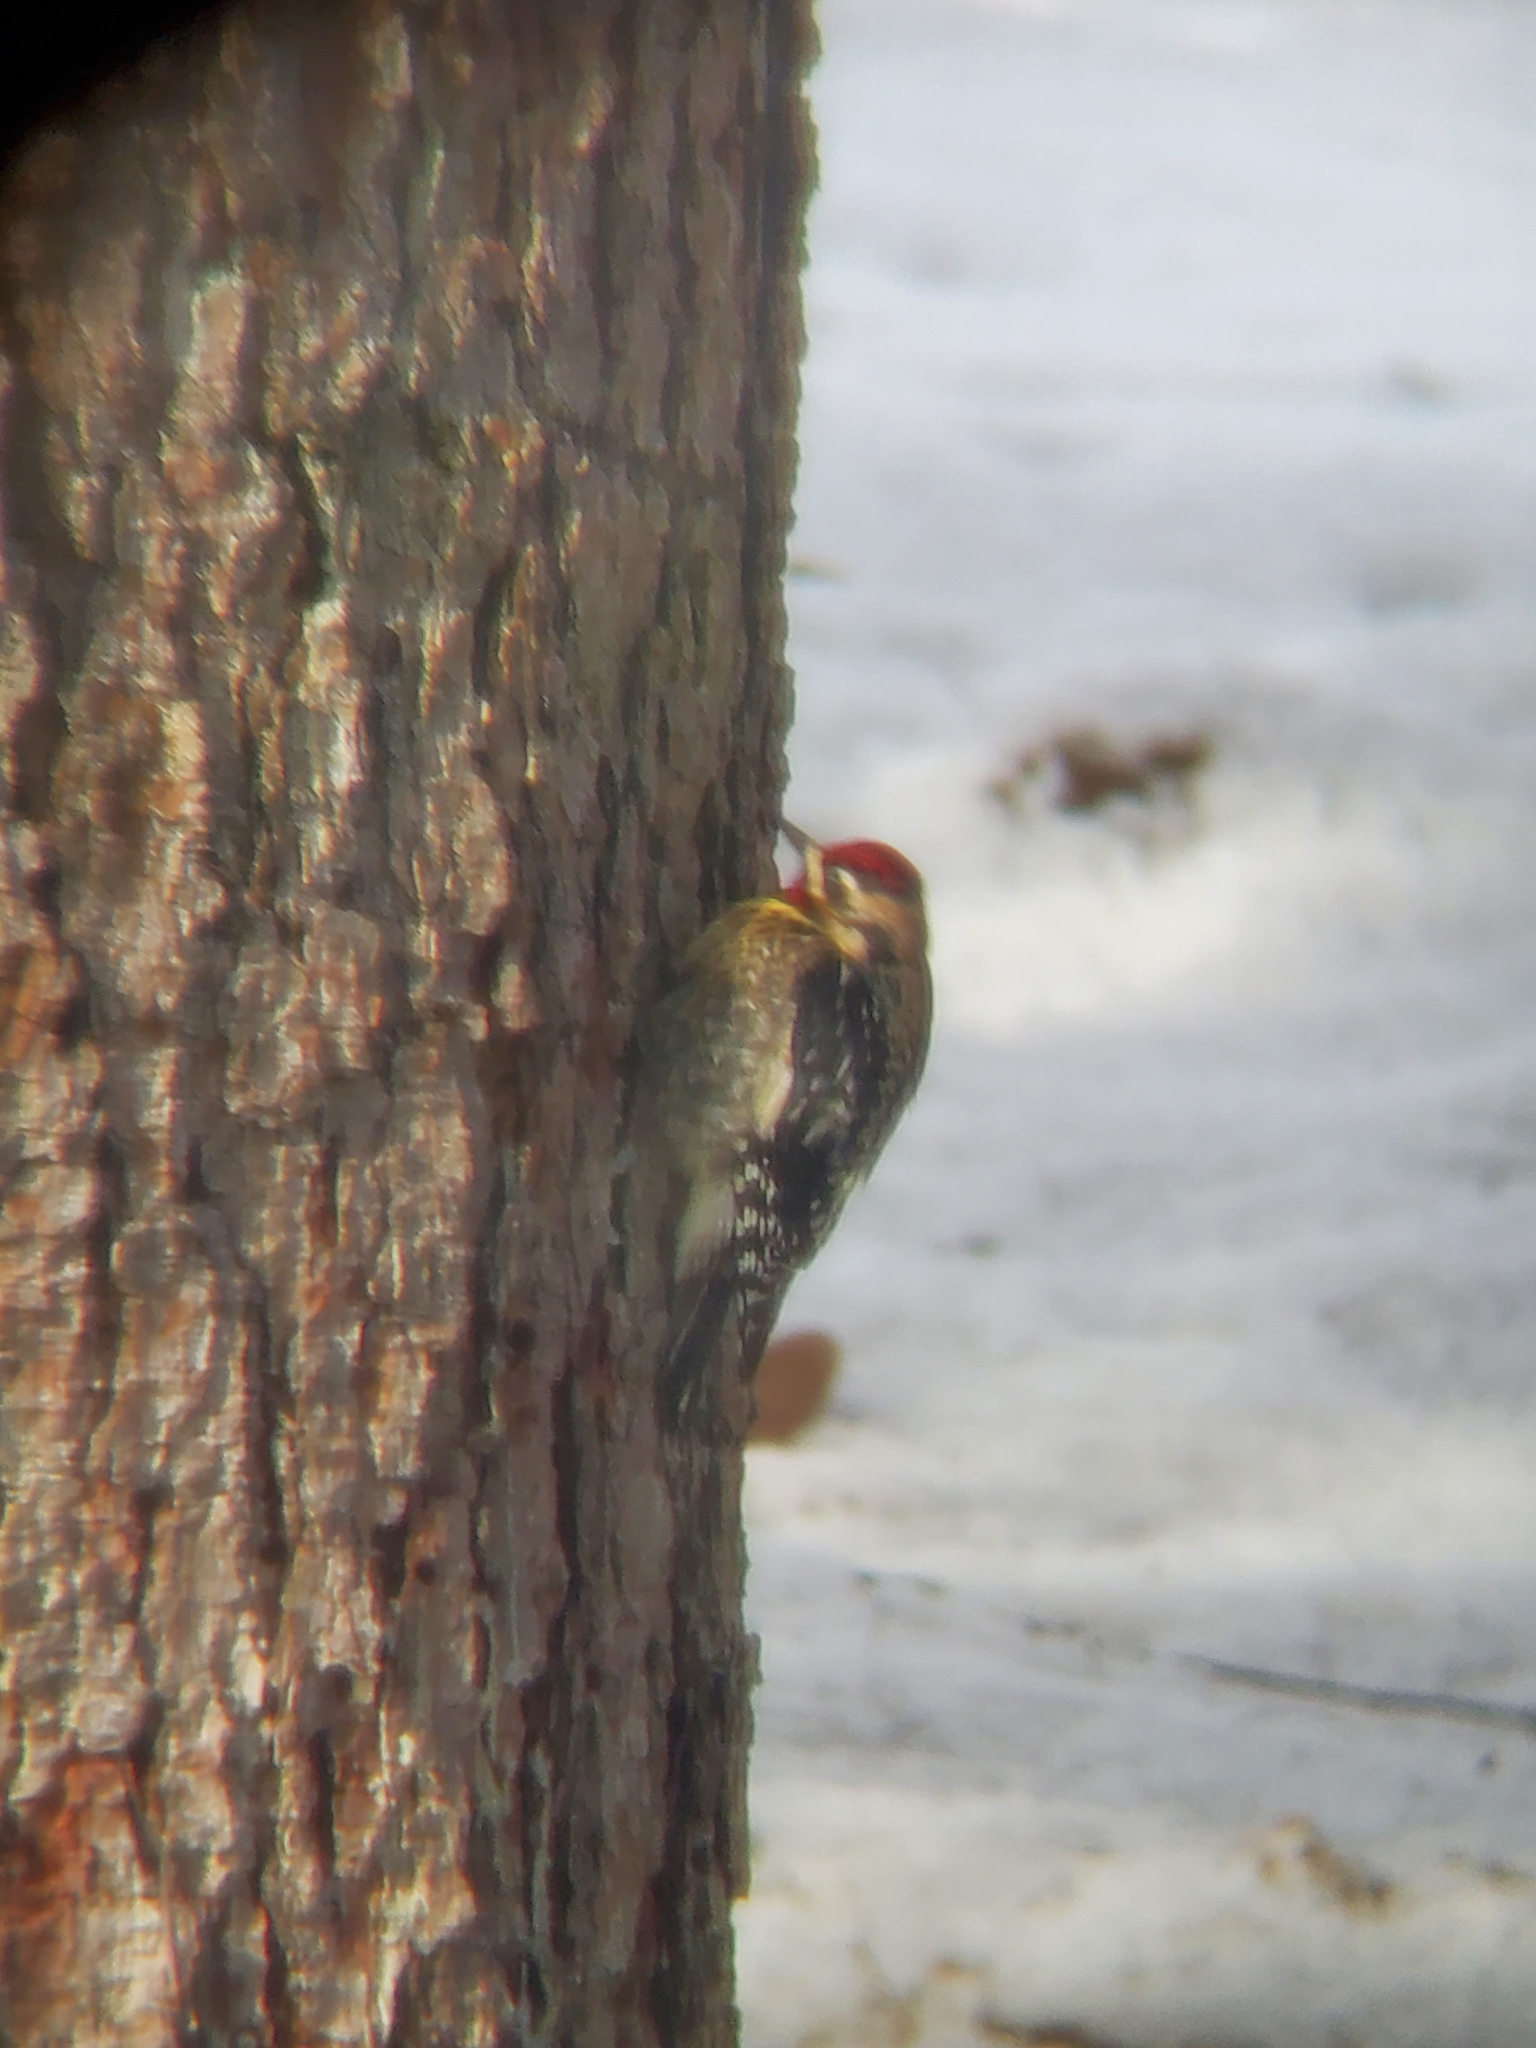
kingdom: Animalia
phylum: Chordata
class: Aves
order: Piciformes
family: Picidae
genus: Sphyrapicus
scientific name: Sphyrapicus varius
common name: Yellow-bellied sapsucker
